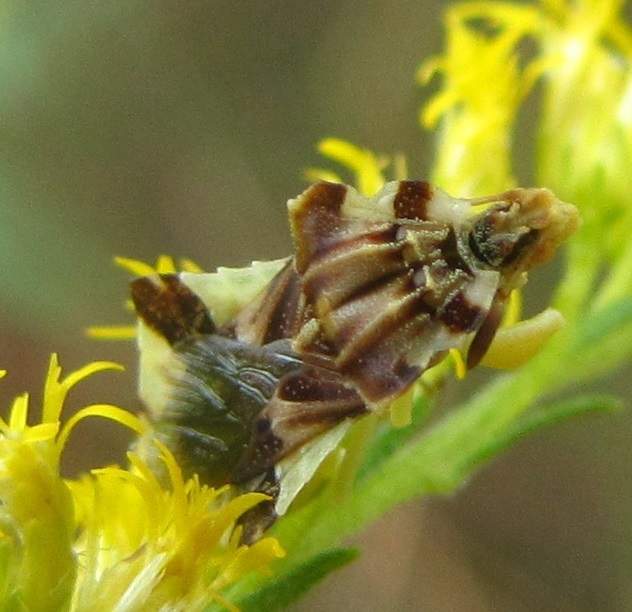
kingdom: Animalia
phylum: Arthropoda
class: Insecta
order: Hemiptera
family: Reduviidae
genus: Phymata
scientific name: Phymata fasciata
